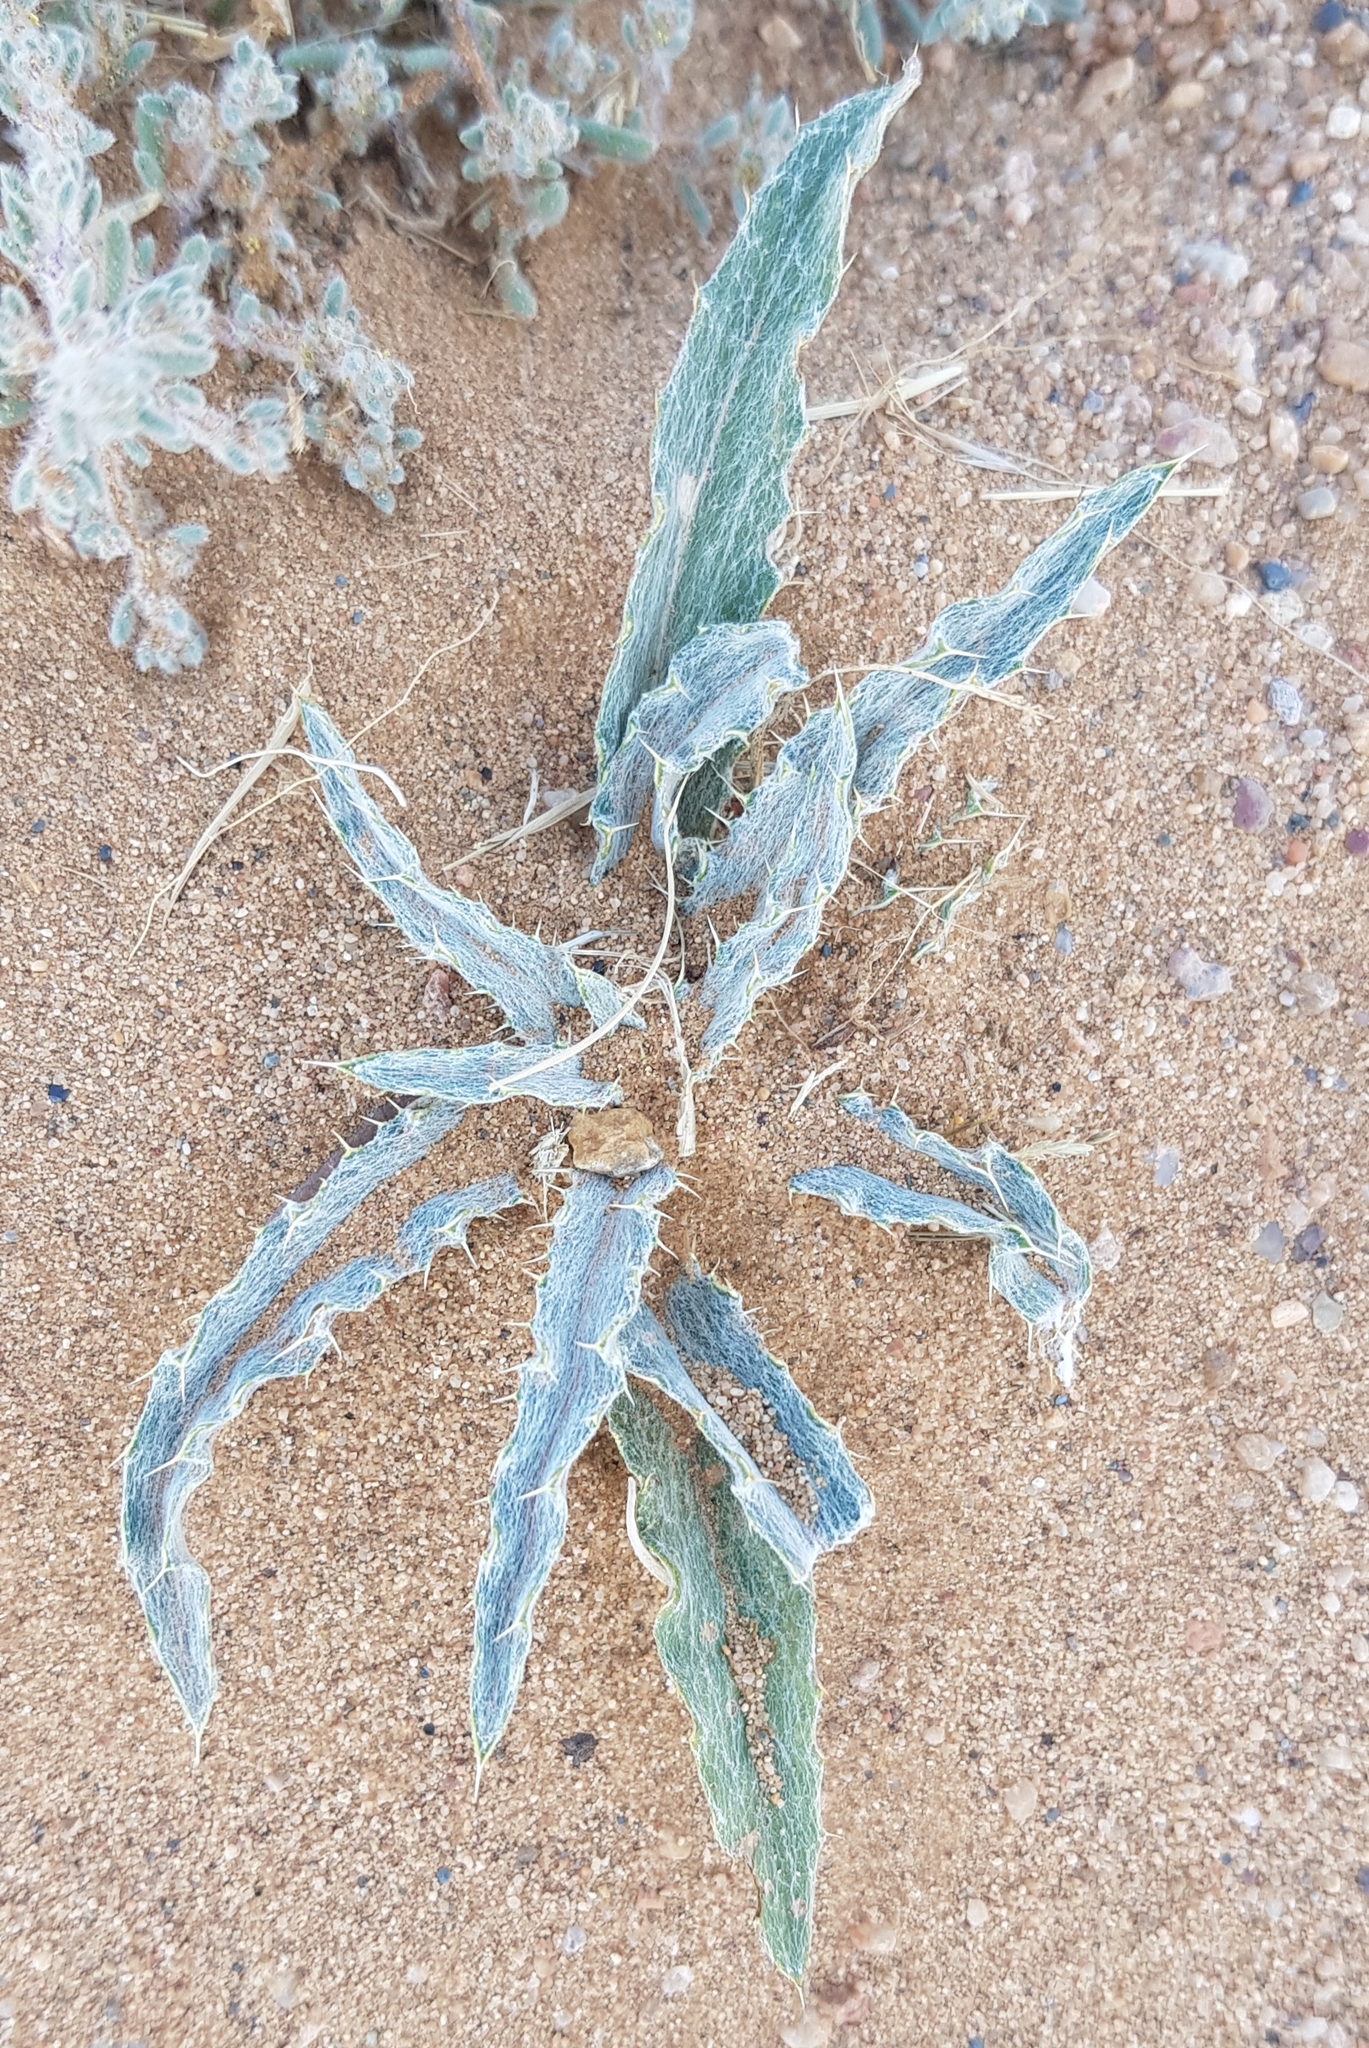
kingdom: Plantae
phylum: Tracheophyta
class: Magnoliopsida
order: Asterales
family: Asteraceae
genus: Tugarinovia
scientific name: Tugarinovia mongolica
